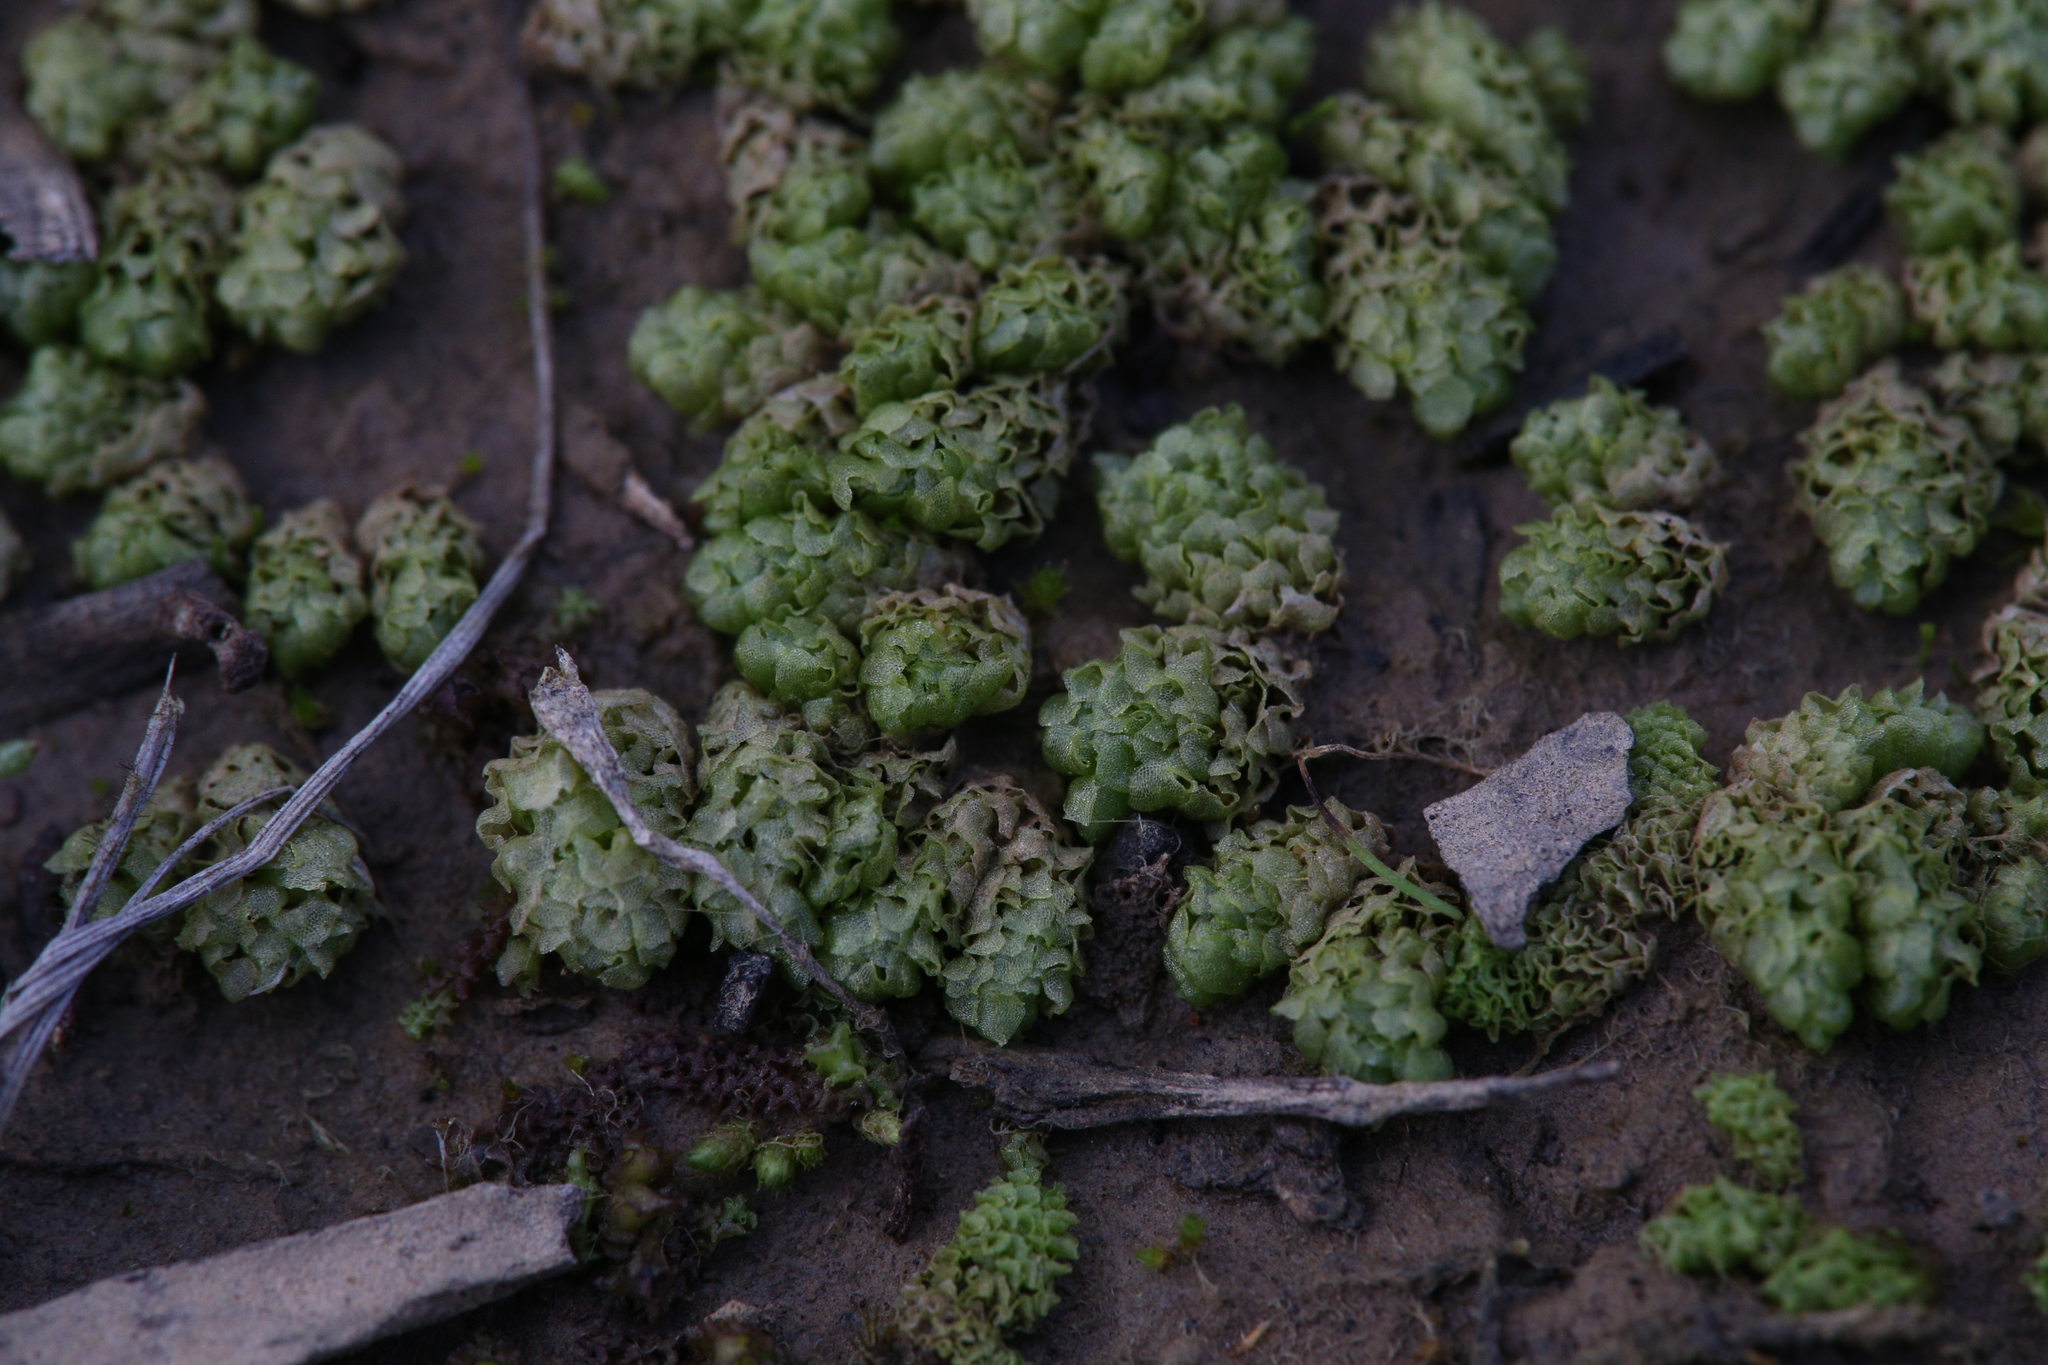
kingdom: Plantae
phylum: Marchantiophyta
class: Jungermanniopsida
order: Fossombroniales
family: Fossombroniaceae
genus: Fossombronia
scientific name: Fossombronia intestinalis
